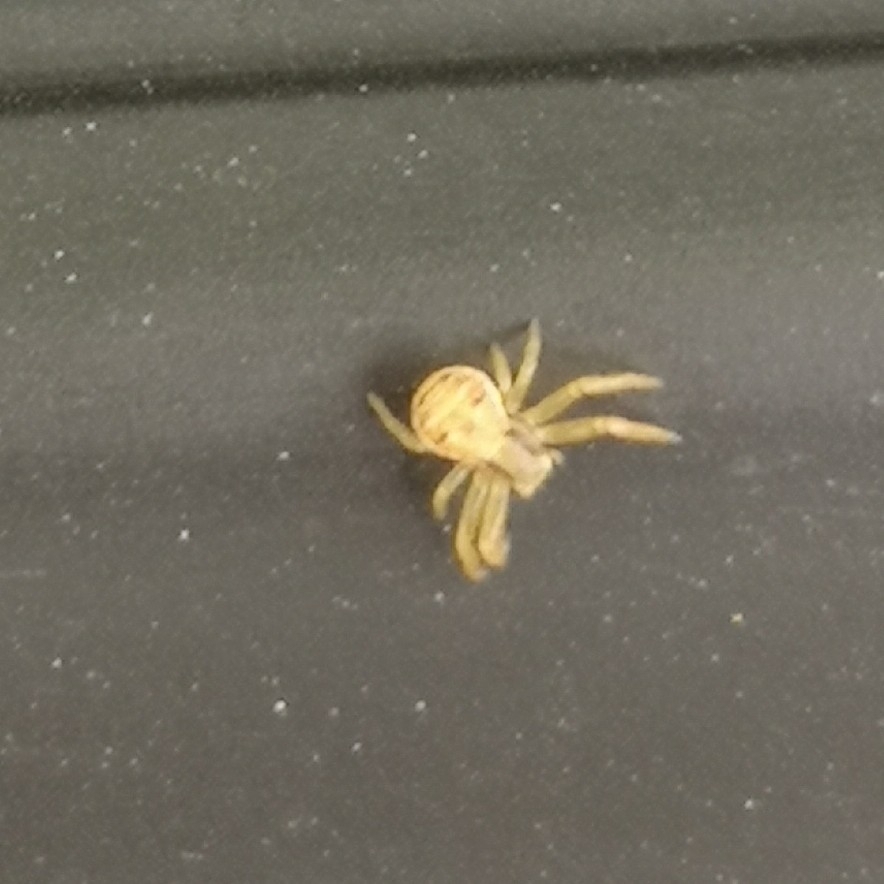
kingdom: Animalia
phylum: Arthropoda
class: Arachnida
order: Araneae
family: Thomisidae
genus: Xysticus
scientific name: Xysticus
